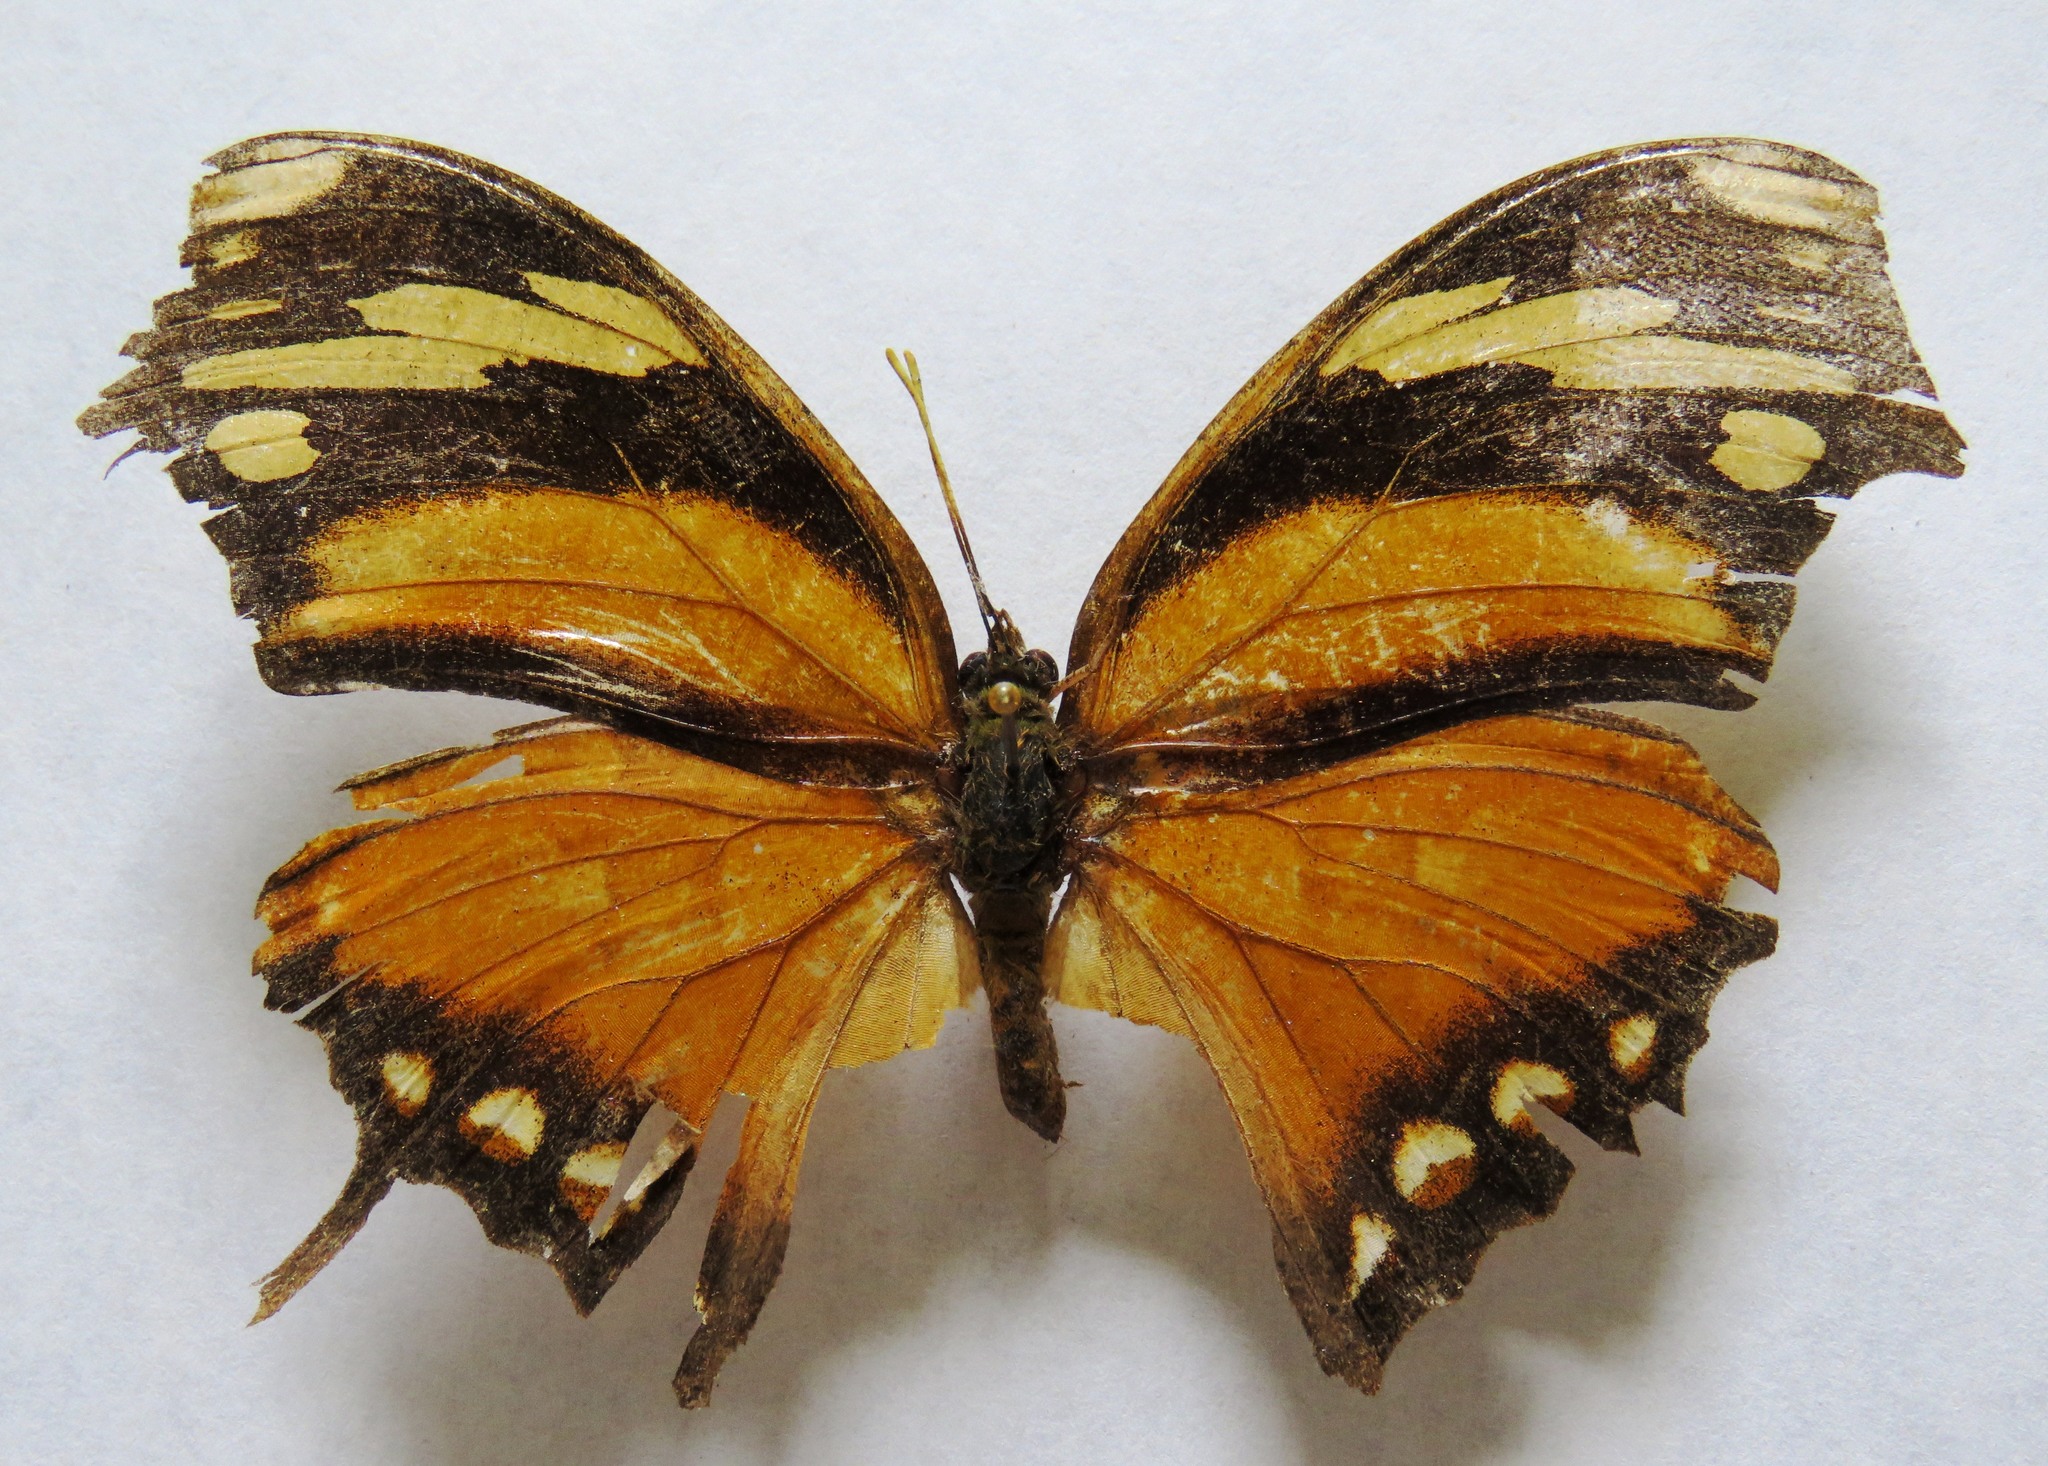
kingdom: Animalia
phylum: Arthropoda
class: Insecta
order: Lepidoptera
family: Nymphalidae
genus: Consul
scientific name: Consul fabius
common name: Tiger leafwing
